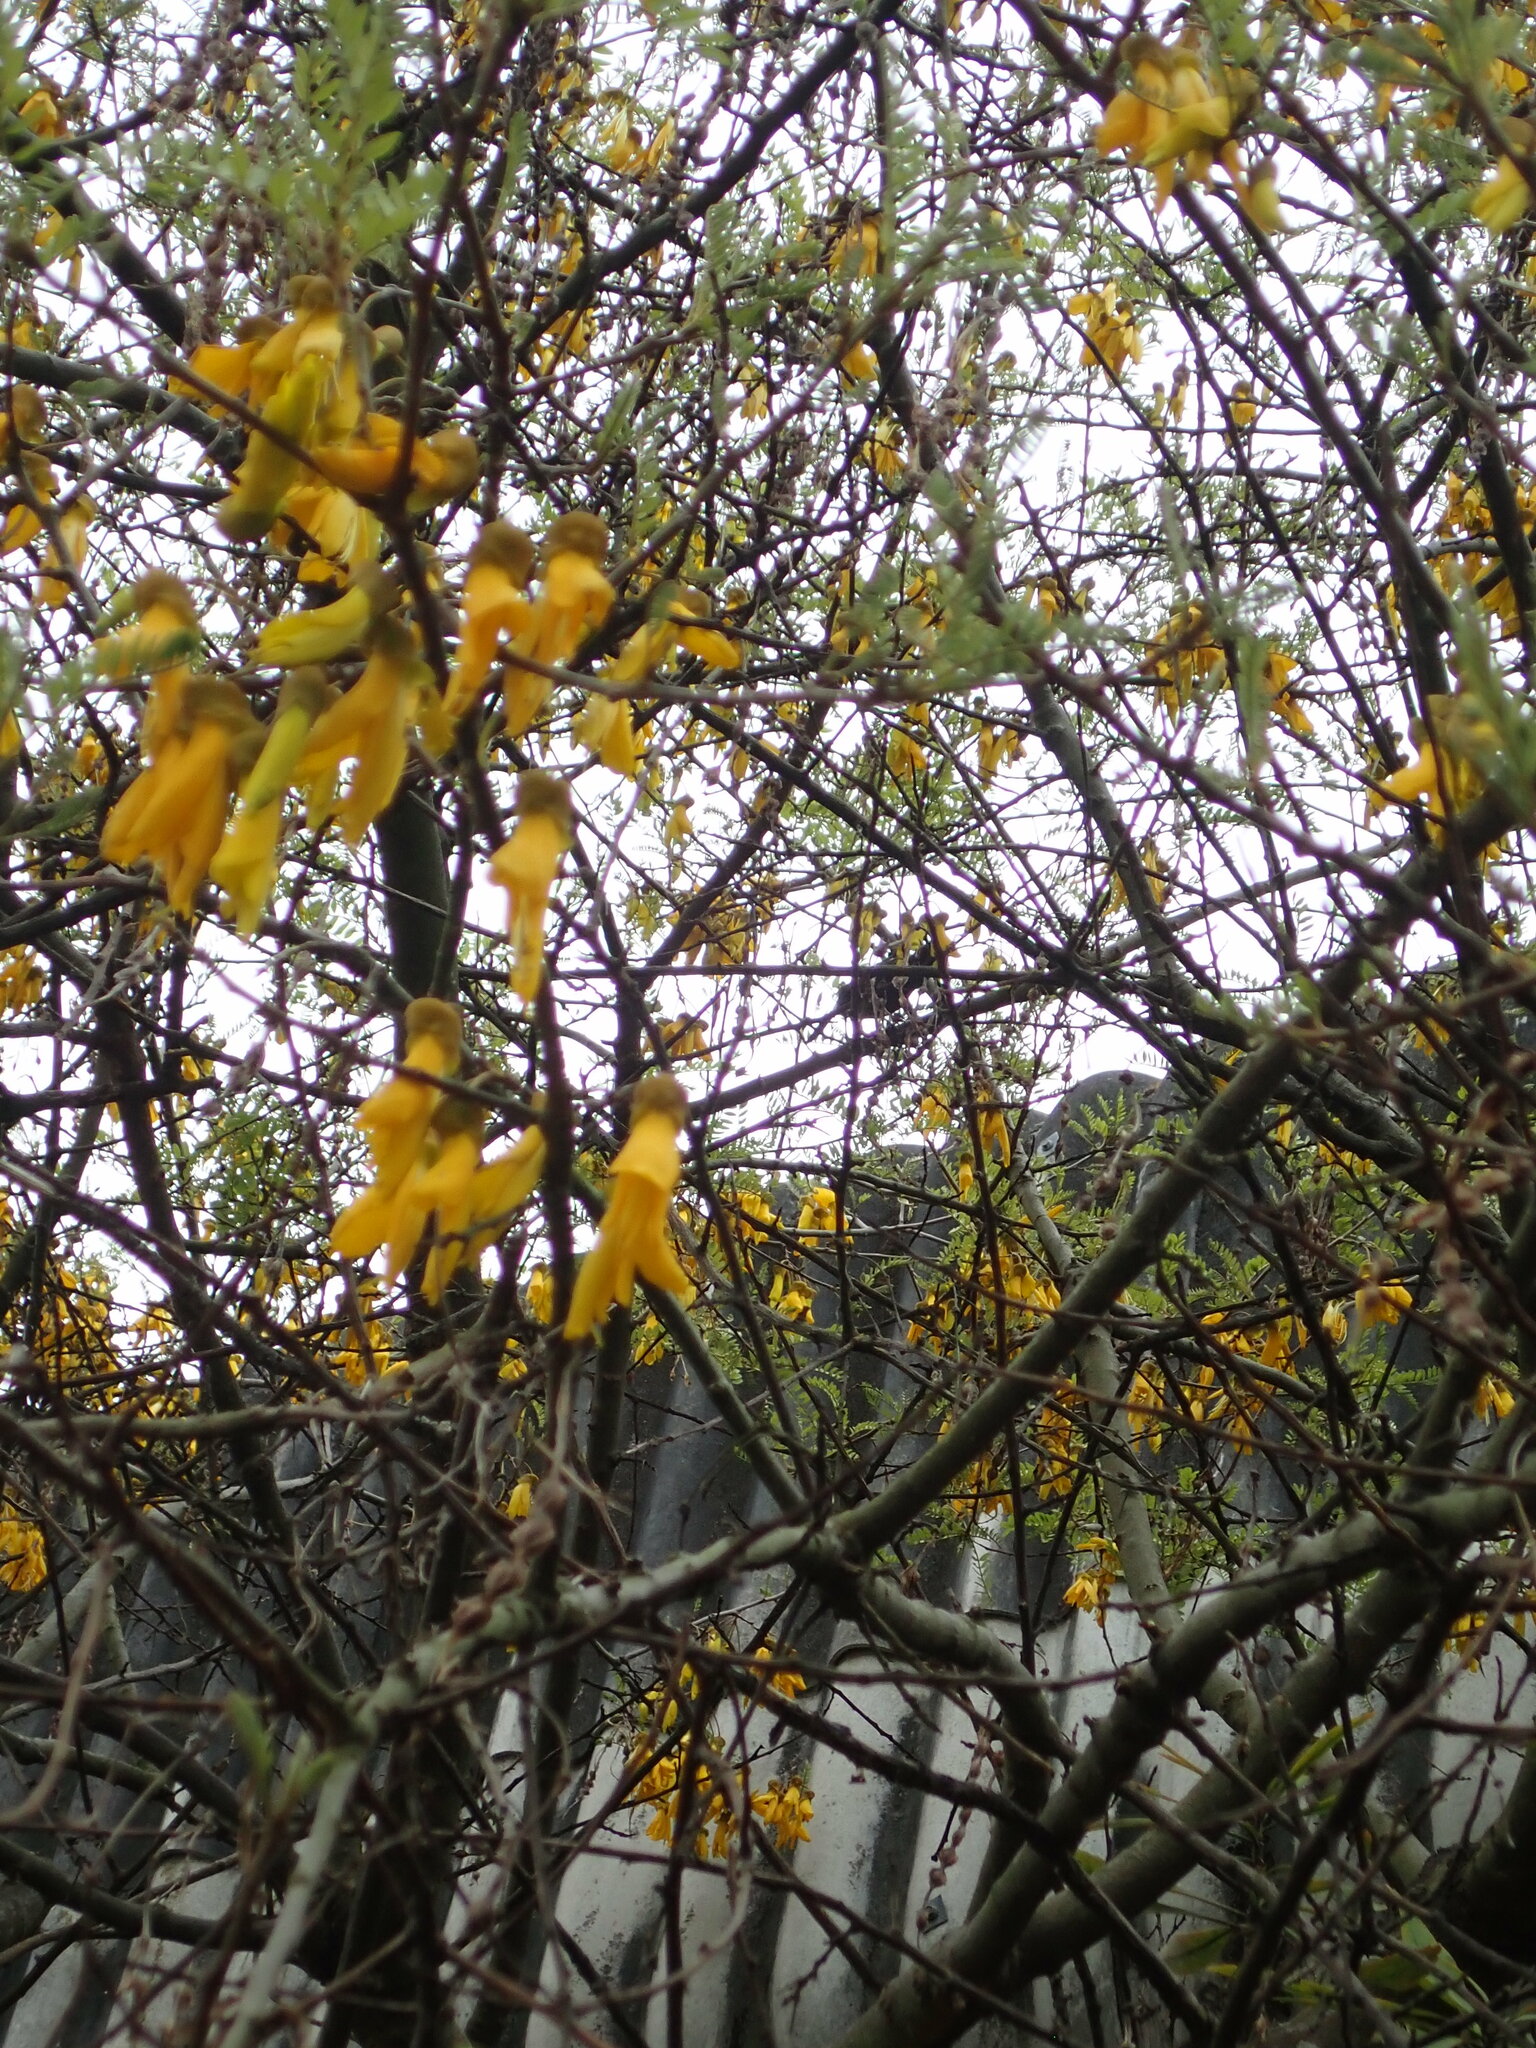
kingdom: Animalia
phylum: Chordata
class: Aves
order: Passeriformes
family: Meliphagidae
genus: Anthornis
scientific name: Anthornis melanura
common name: New zealand bellbird
